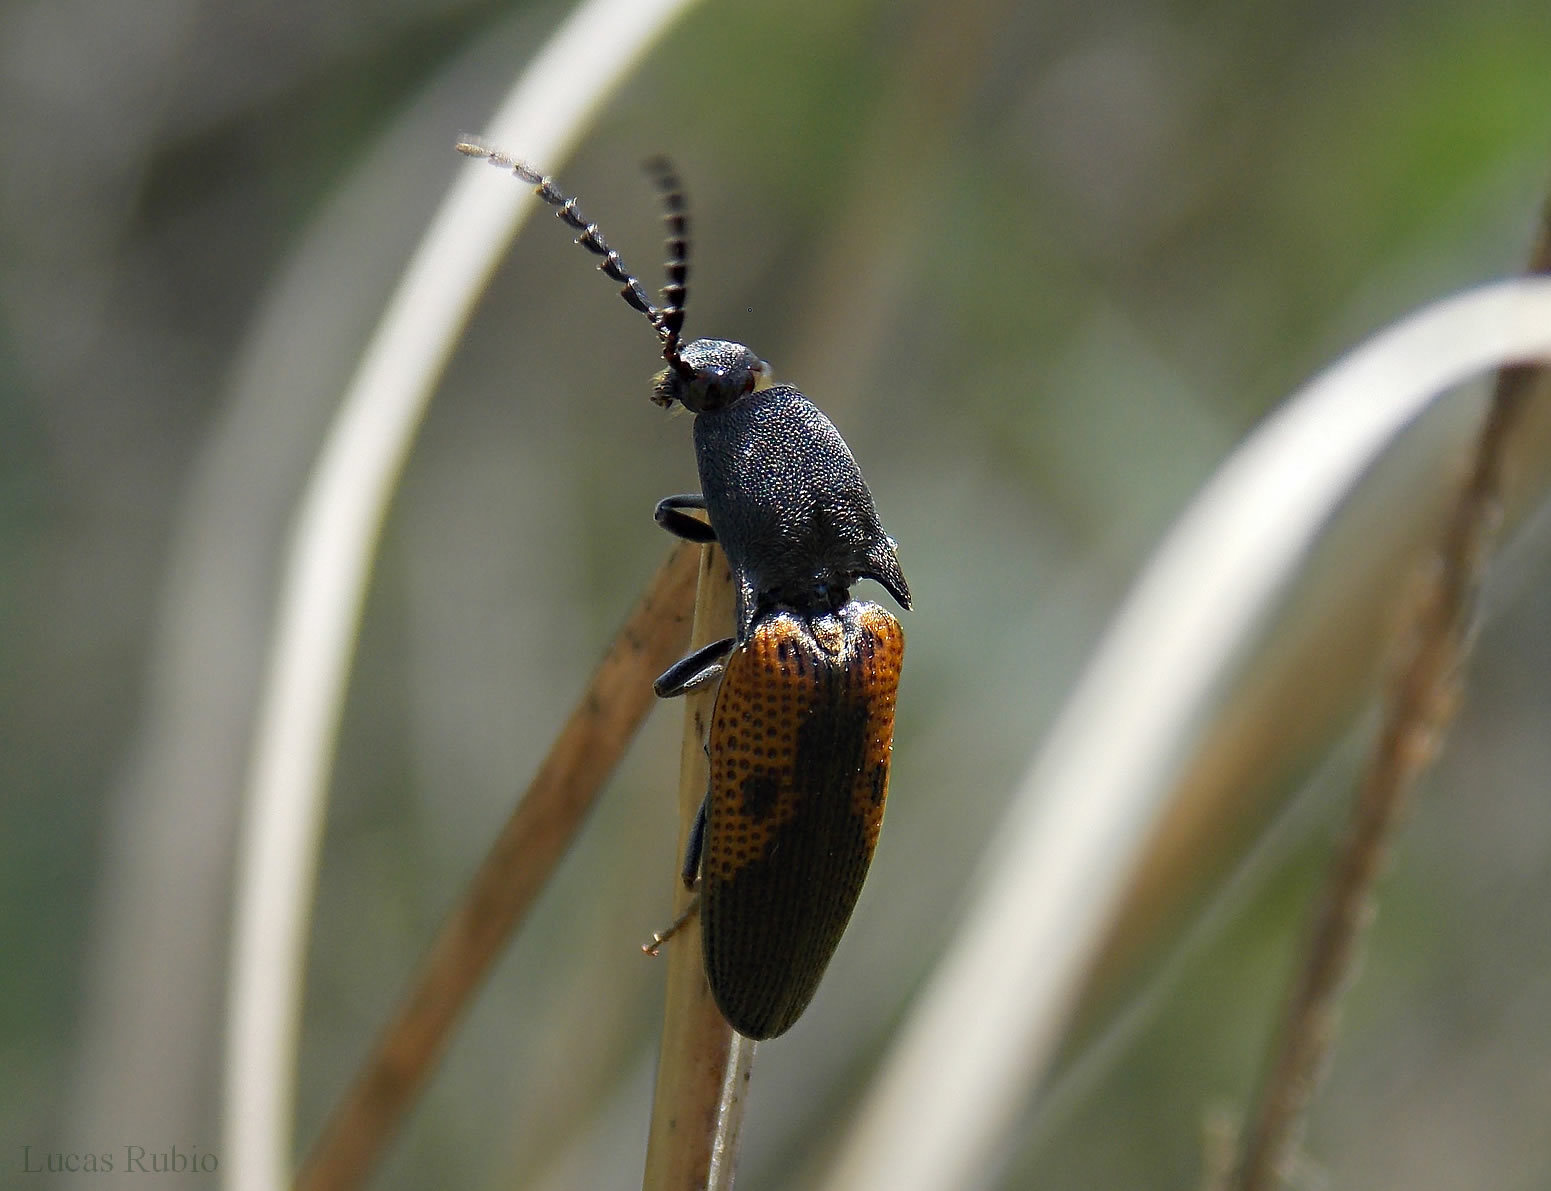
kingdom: Animalia
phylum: Arthropoda
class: Insecta
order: Coleoptera
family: Elateridae
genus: Monocrepidius
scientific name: Monocrepidius
